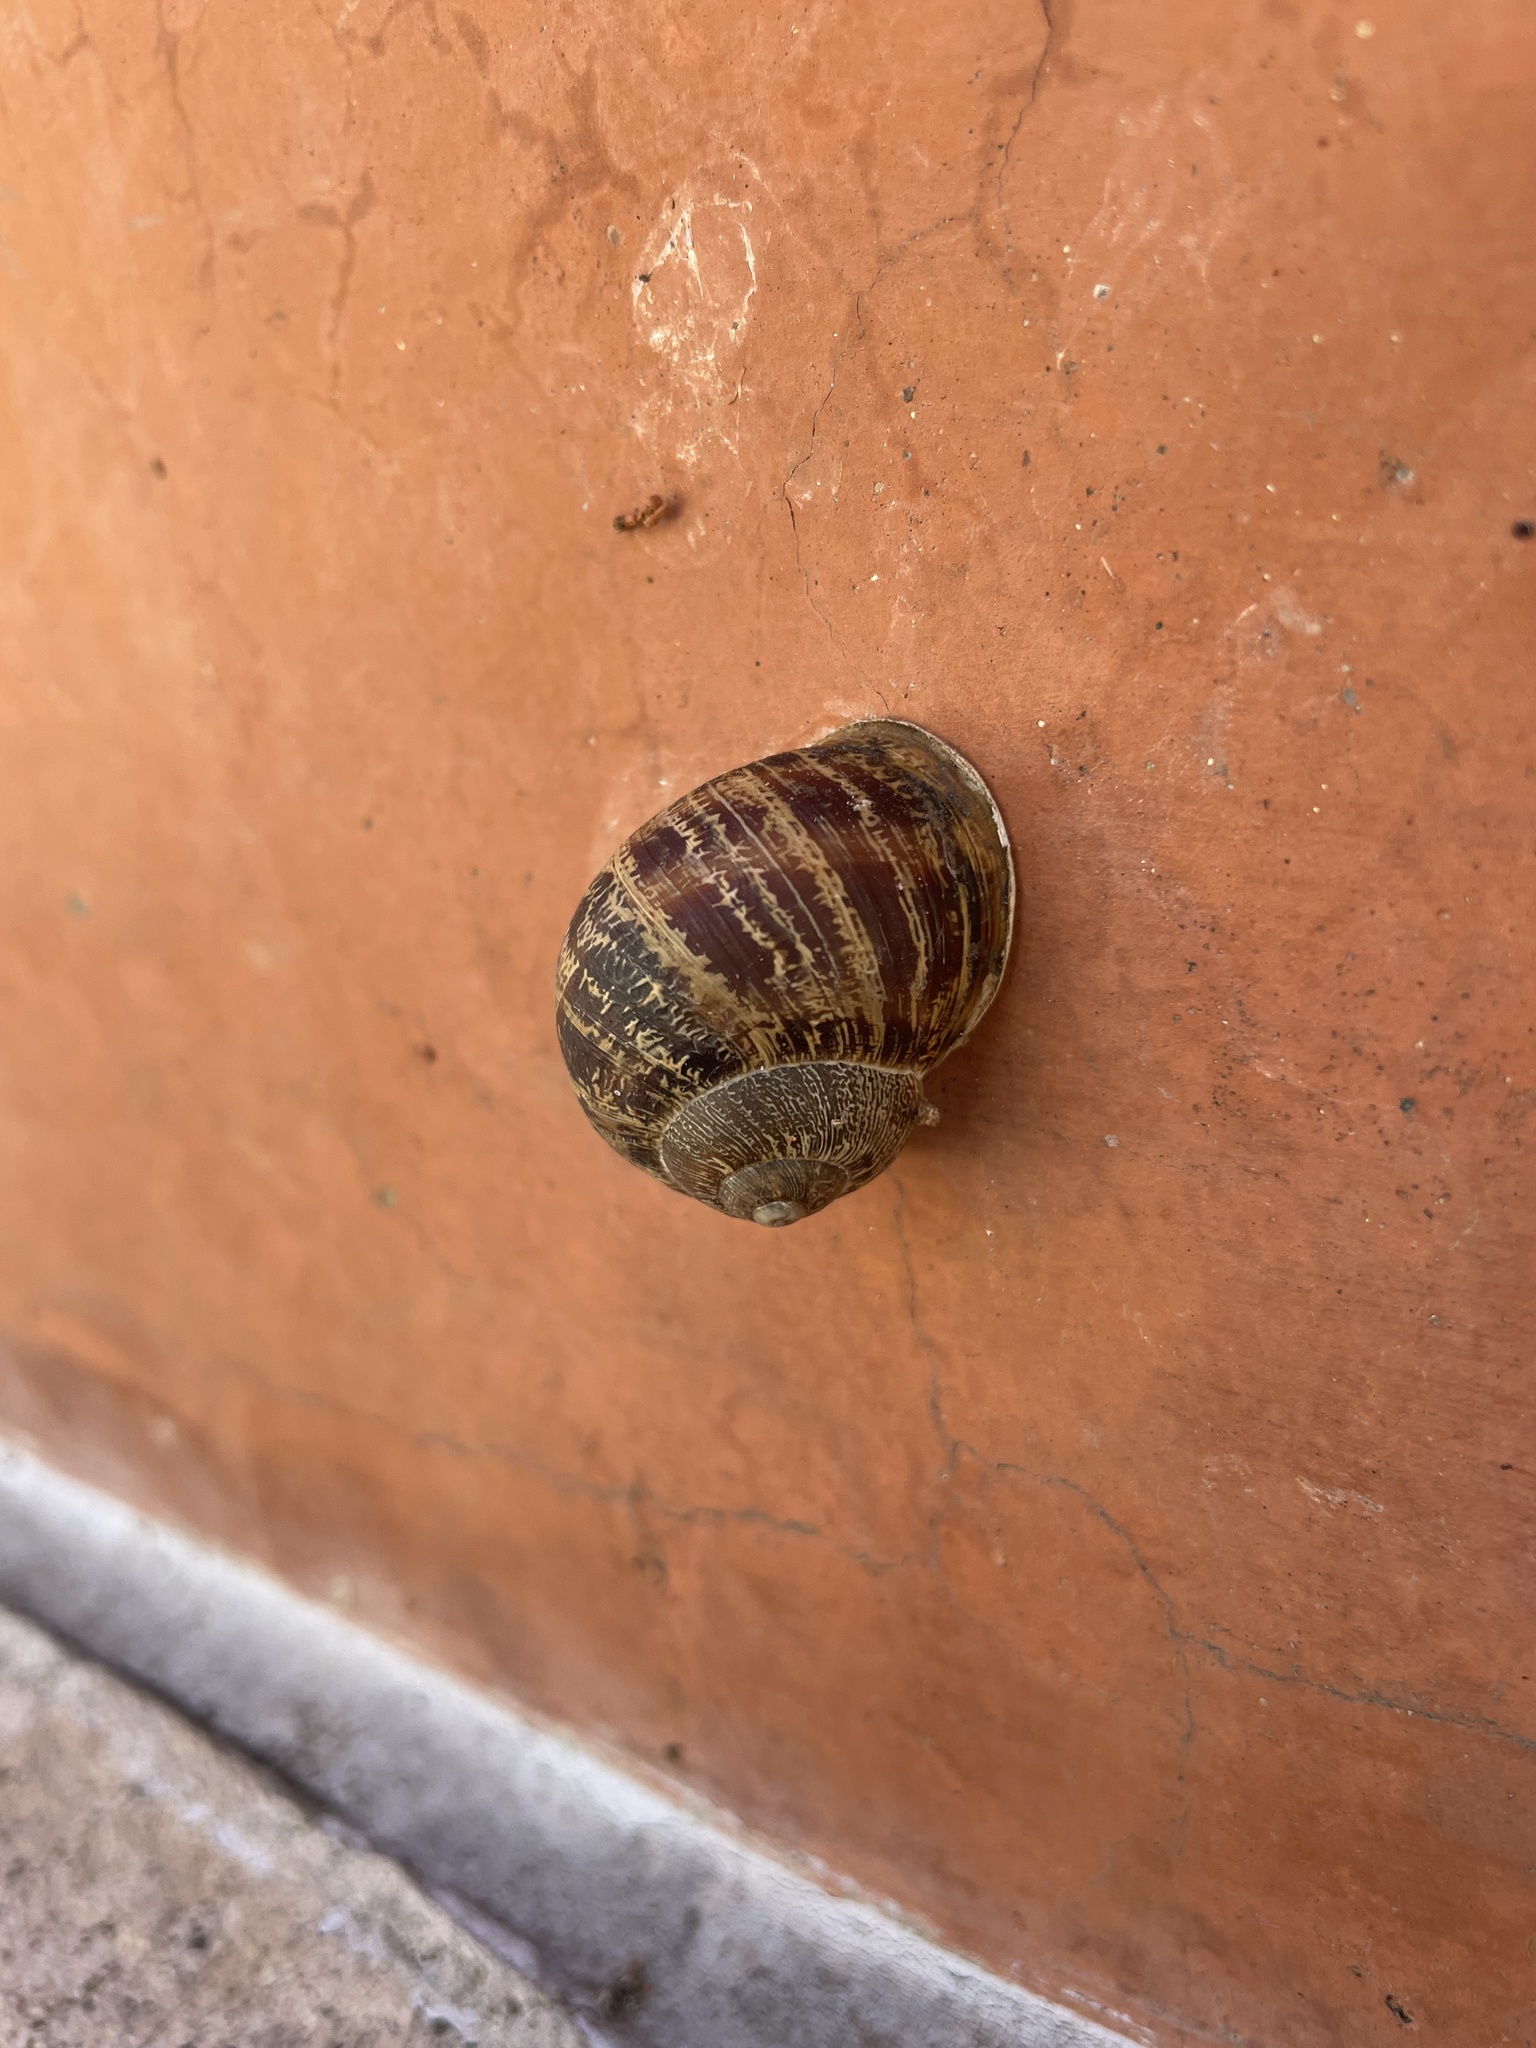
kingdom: Animalia
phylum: Mollusca
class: Gastropoda
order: Stylommatophora
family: Helicidae
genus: Cornu
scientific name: Cornu aspersum
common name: Brown garden snail
